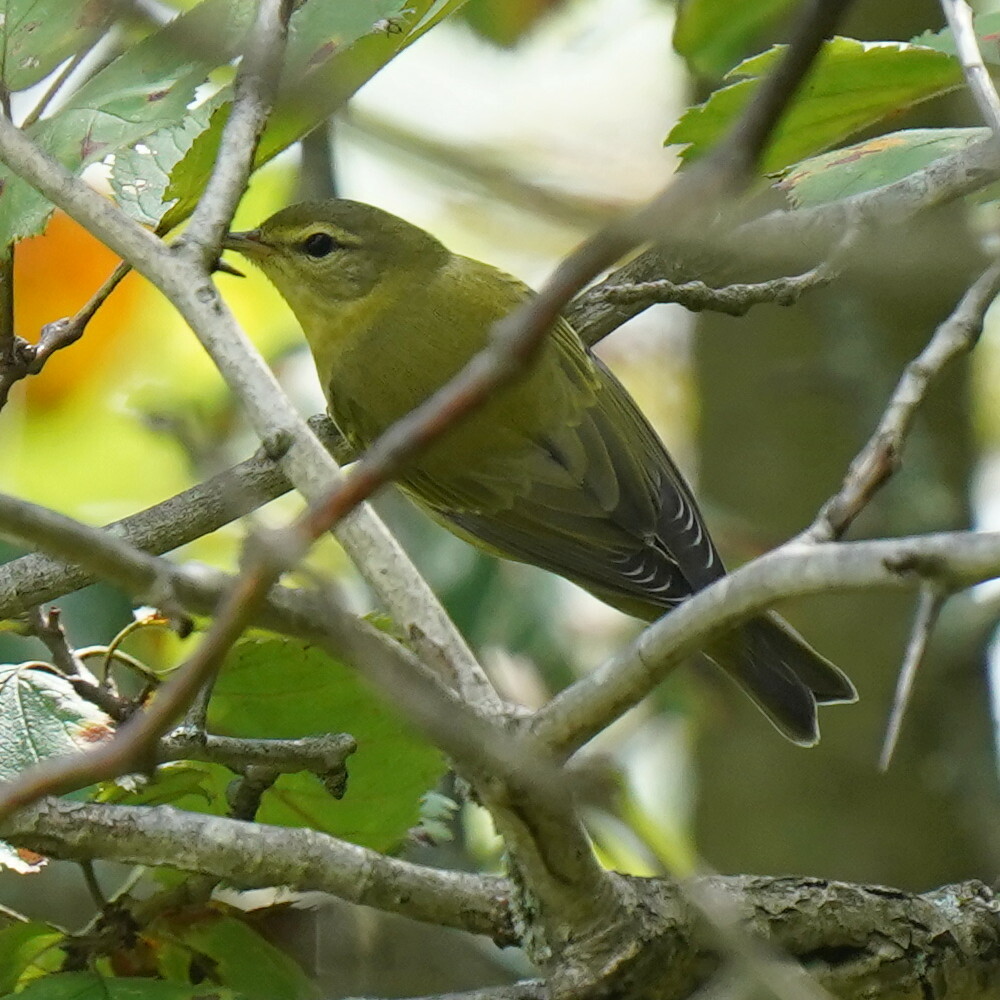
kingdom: Animalia
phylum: Chordata
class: Aves
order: Passeriformes
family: Parulidae
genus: Leiothlypis
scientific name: Leiothlypis peregrina
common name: Tennessee warbler
